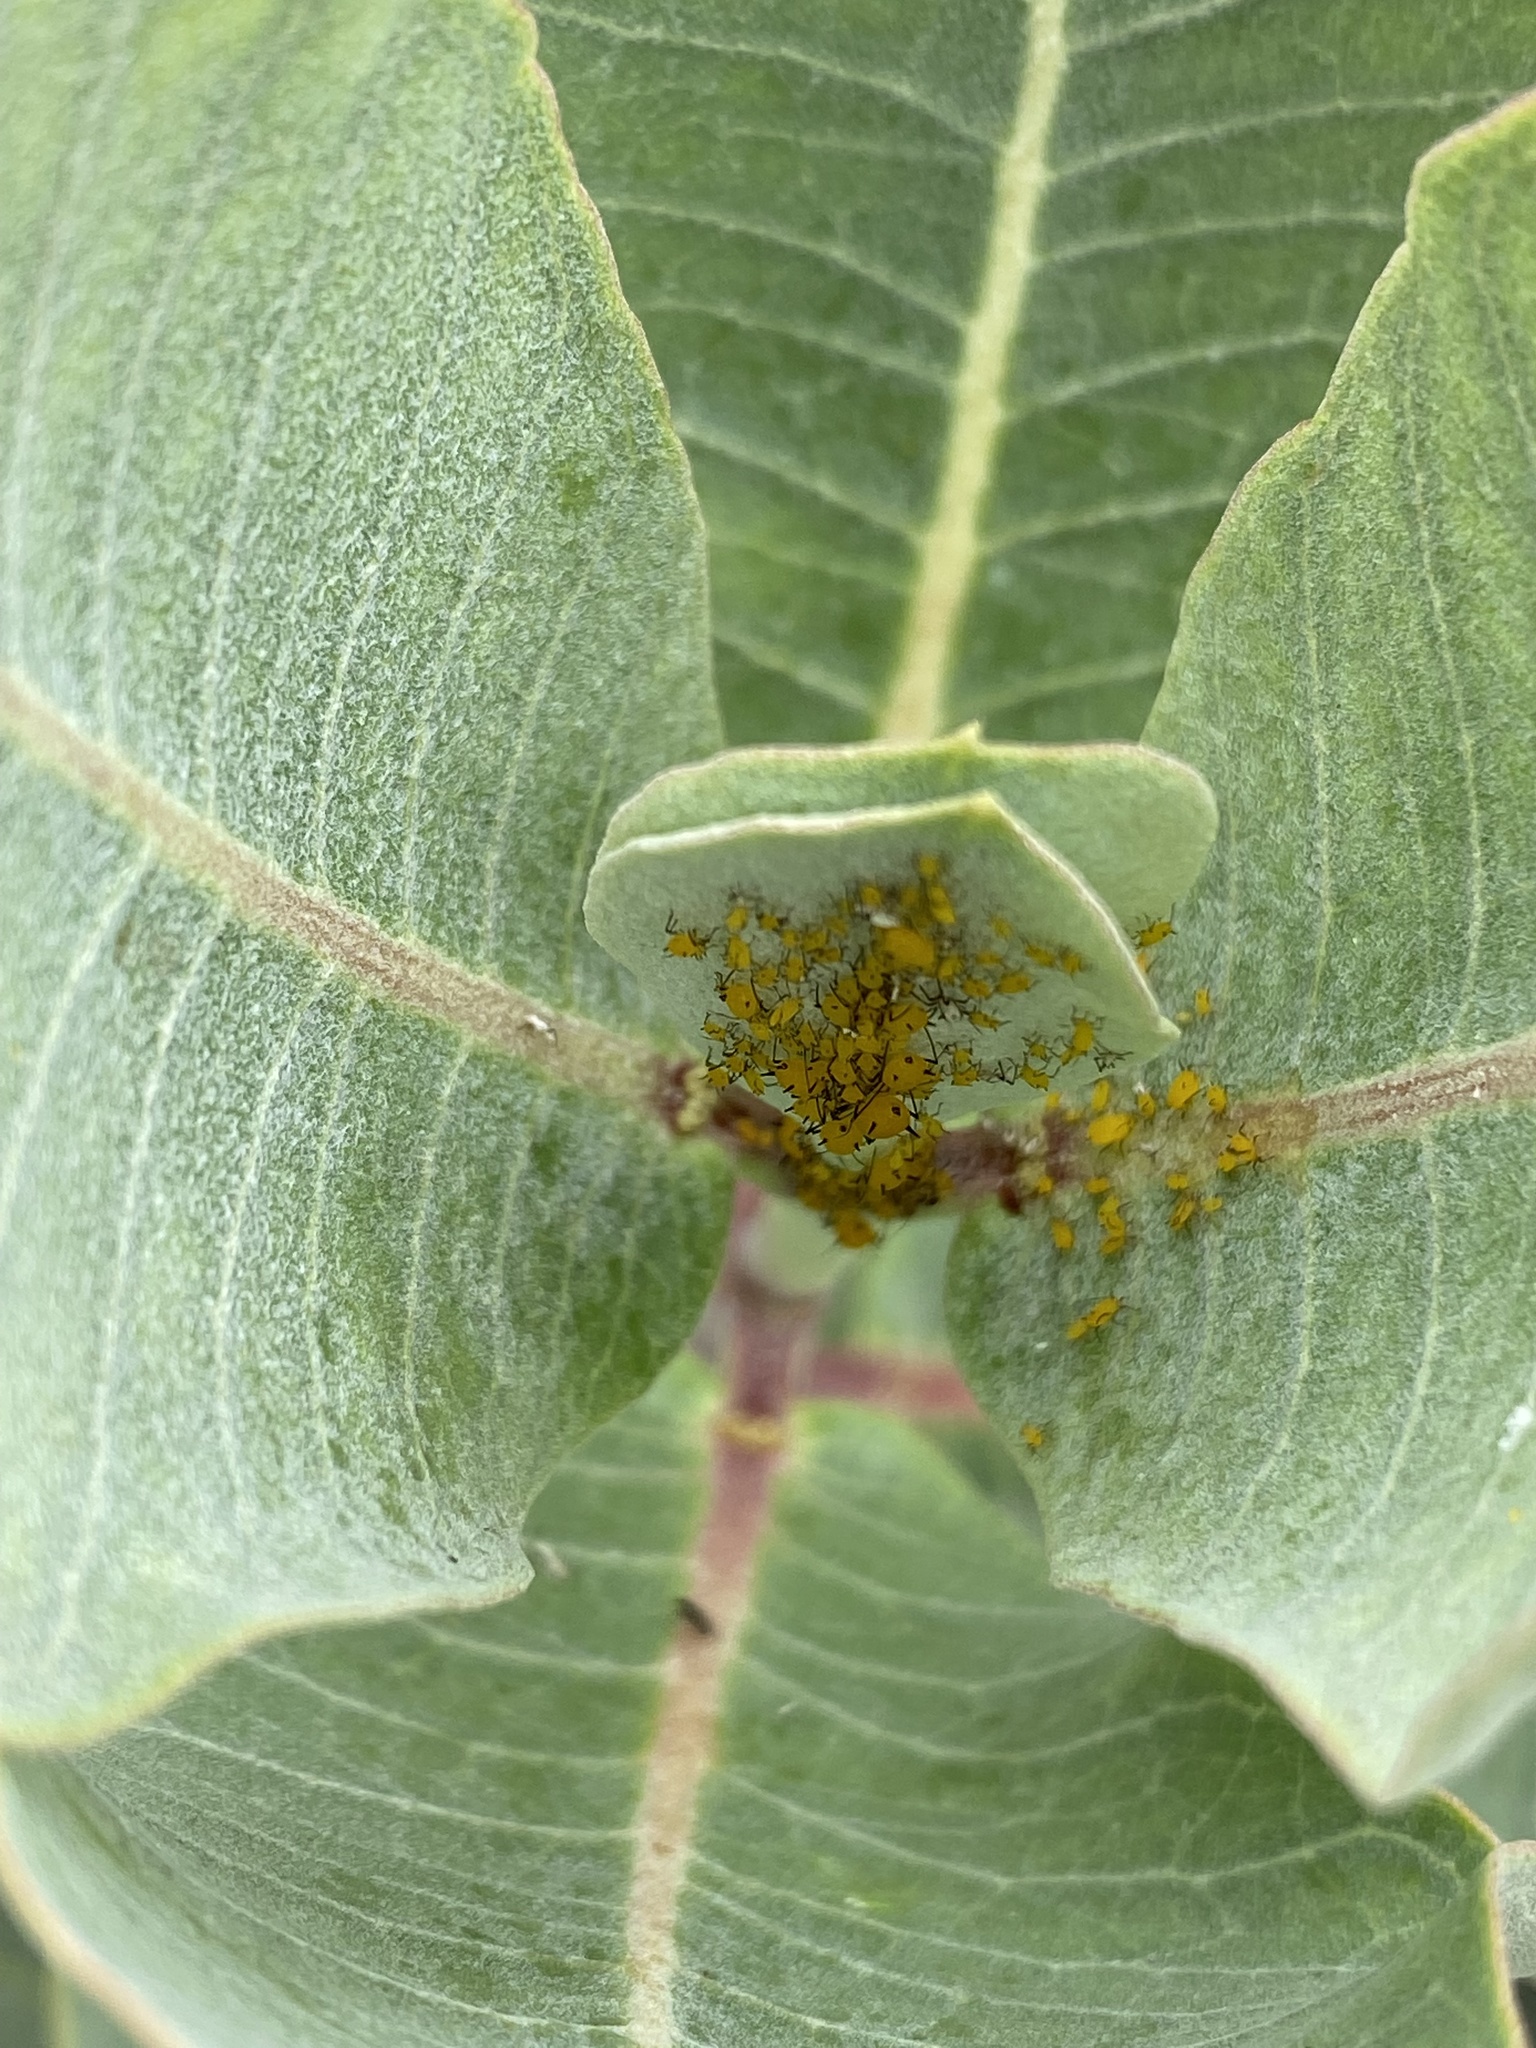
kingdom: Animalia
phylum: Arthropoda
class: Insecta
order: Hemiptera
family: Aphididae
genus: Aphis
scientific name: Aphis nerii
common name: Oleander aphid
